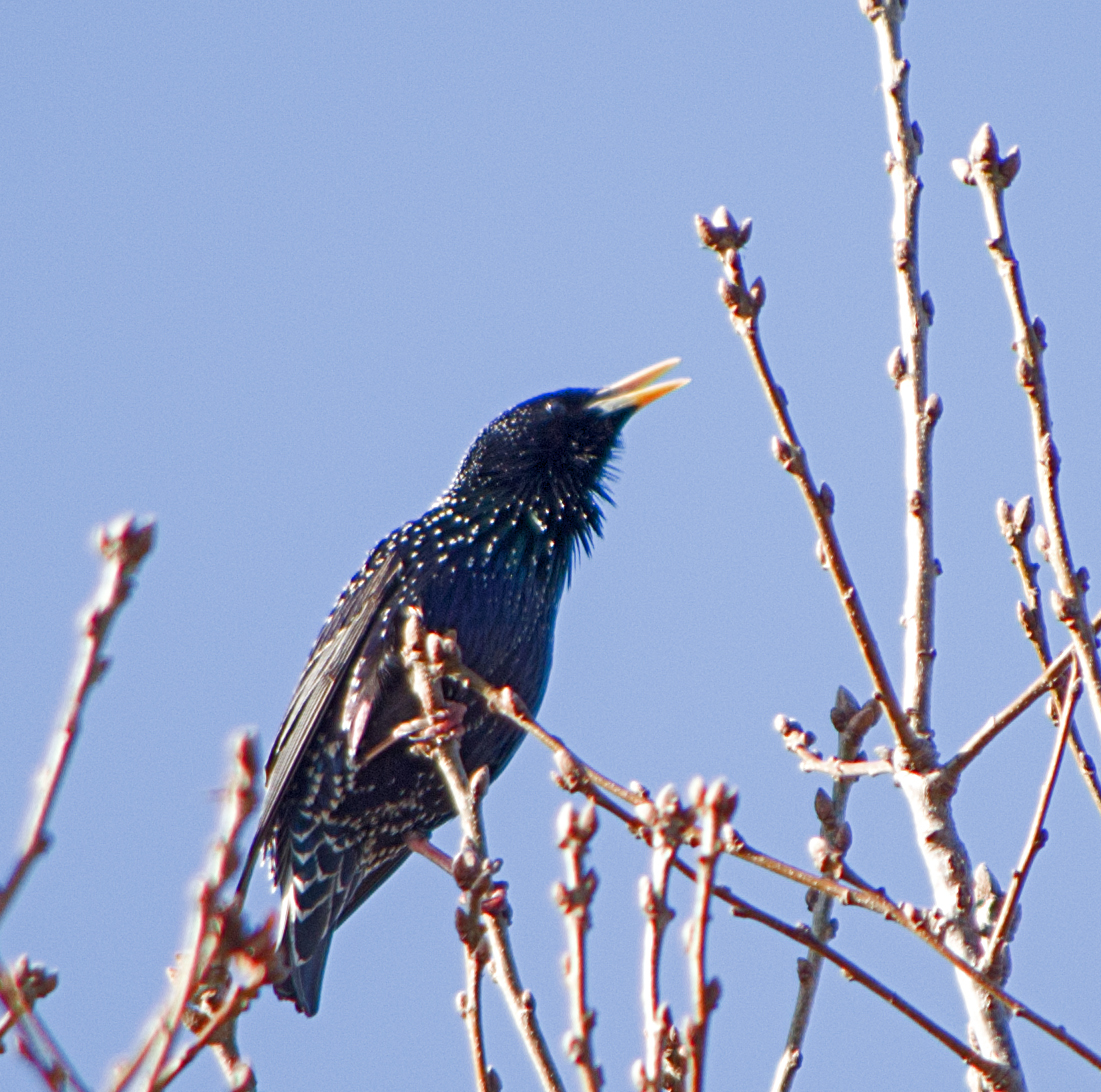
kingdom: Animalia
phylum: Chordata
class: Aves
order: Passeriformes
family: Sturnidae
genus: Sturnus
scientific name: Sturnus vulgaris
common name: Common starling
